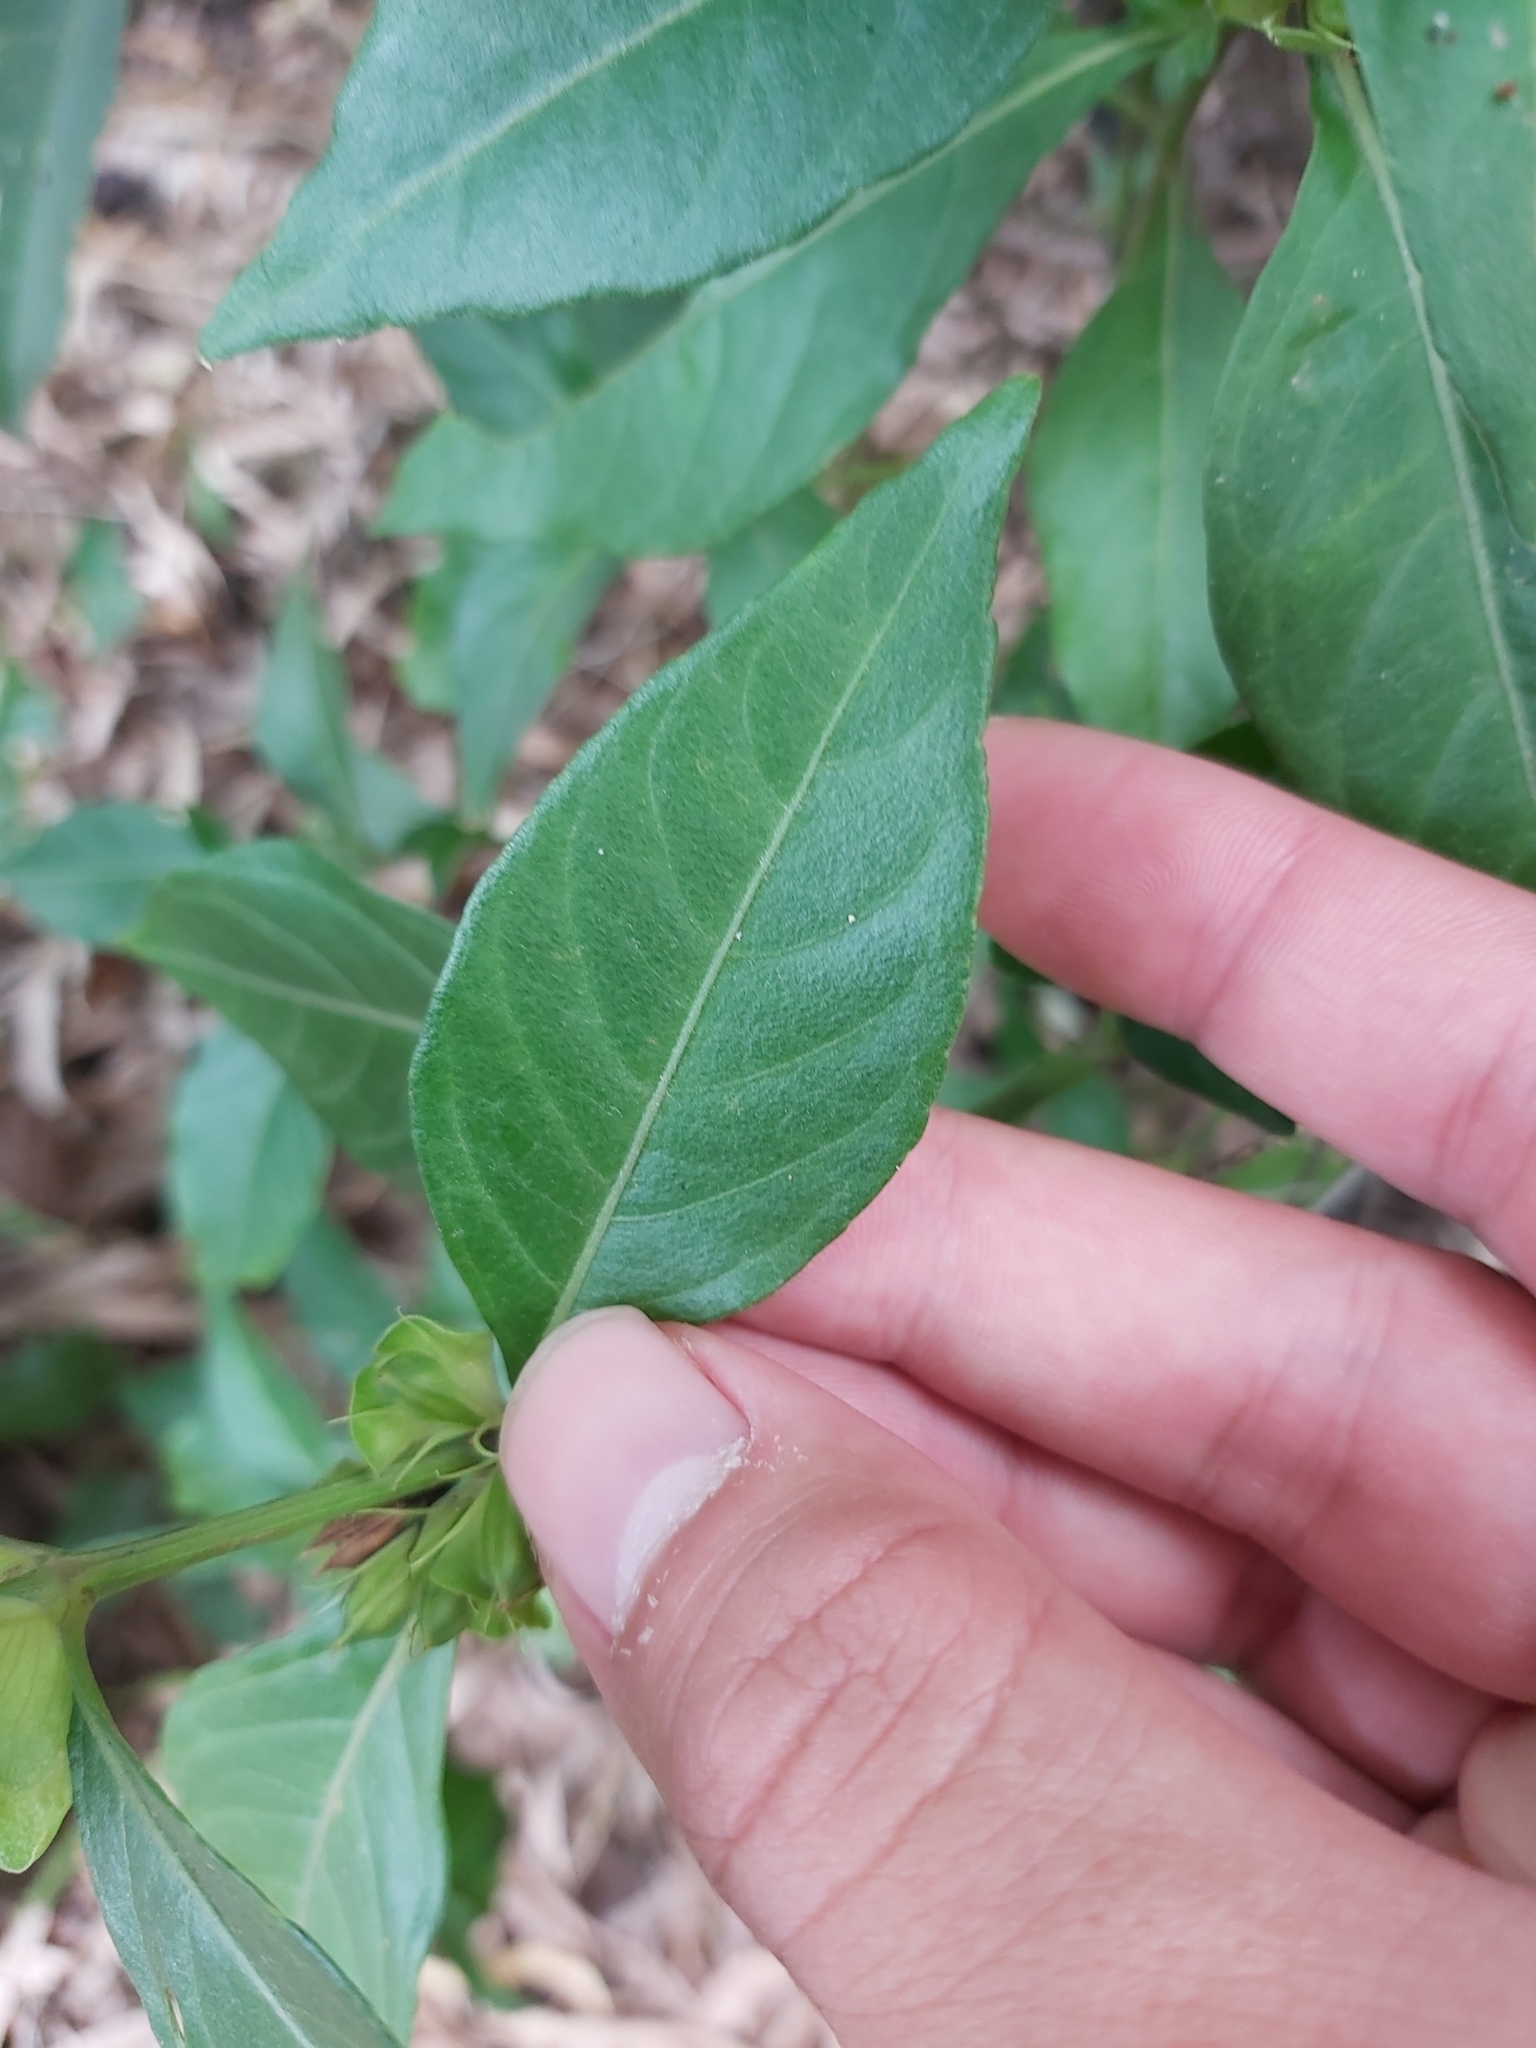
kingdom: Plantae
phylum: Tracheophyta
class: Magnoliopsida
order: Lamiales
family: Acanthaceae
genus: Justicia
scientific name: Justicia hygrophiloides
